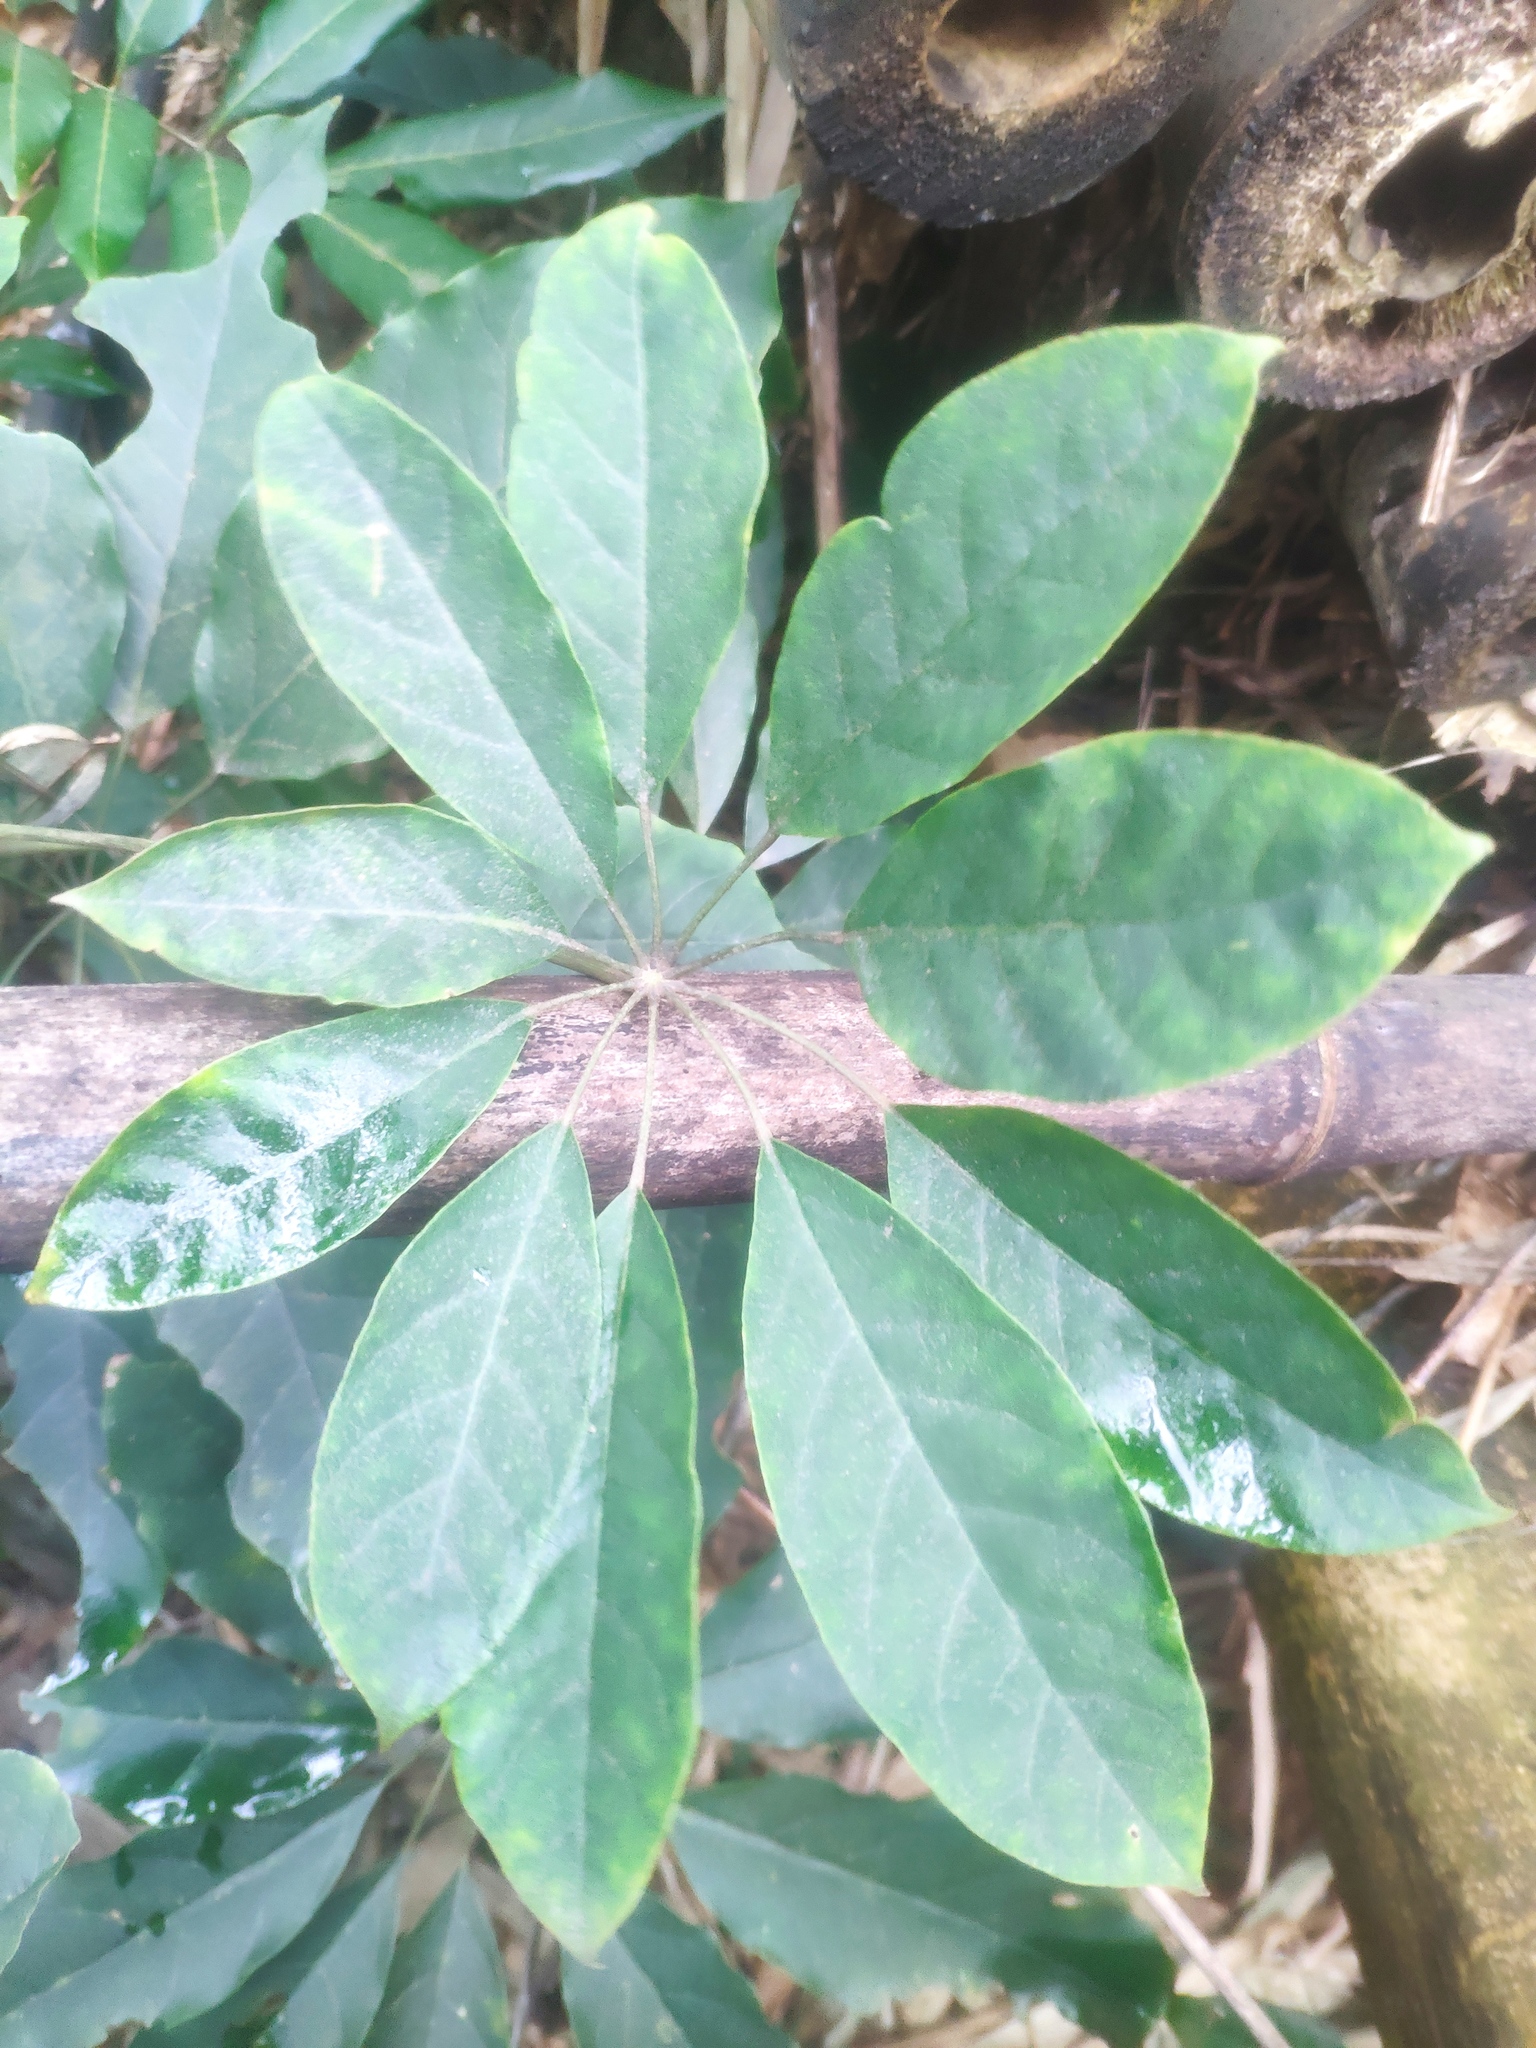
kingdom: Plantae
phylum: Tracheophyta
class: Magnoliopsida
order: Apiales
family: Araliaceae
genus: Heptapleurum
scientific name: Heptapleurum heptaphyllum
